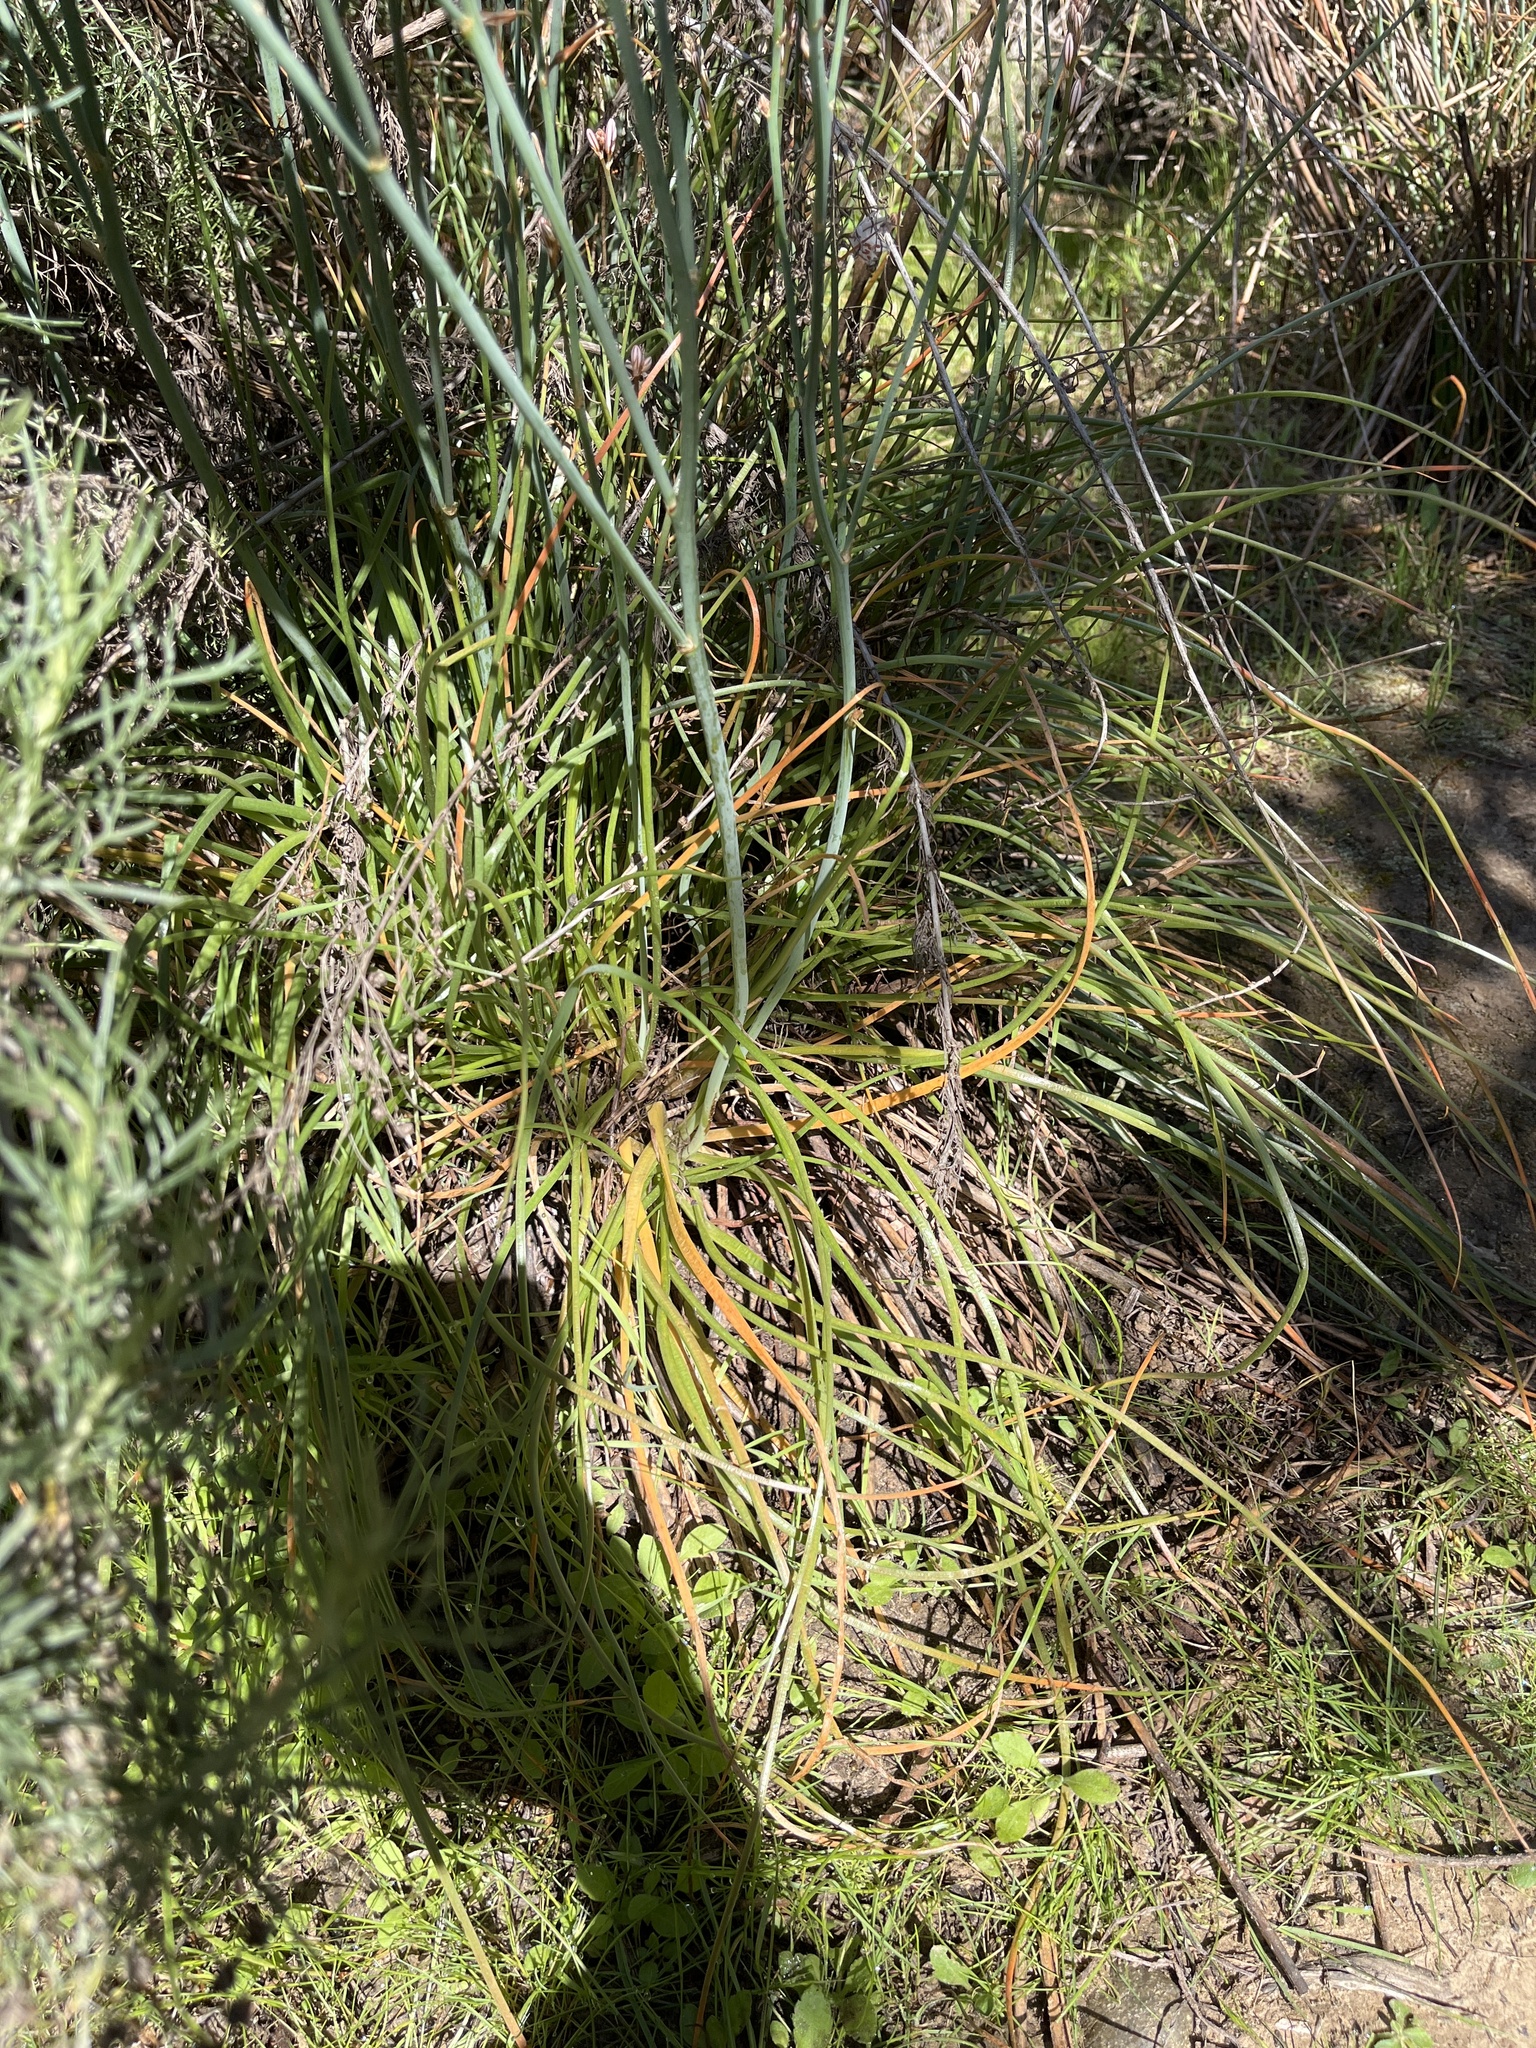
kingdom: Plantae
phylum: Tracheophyta
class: Liliopsida
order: Asparagales
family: Asphodelaceae
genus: Asphodelus
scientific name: Asphodelus fistulosus
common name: Onionweed
